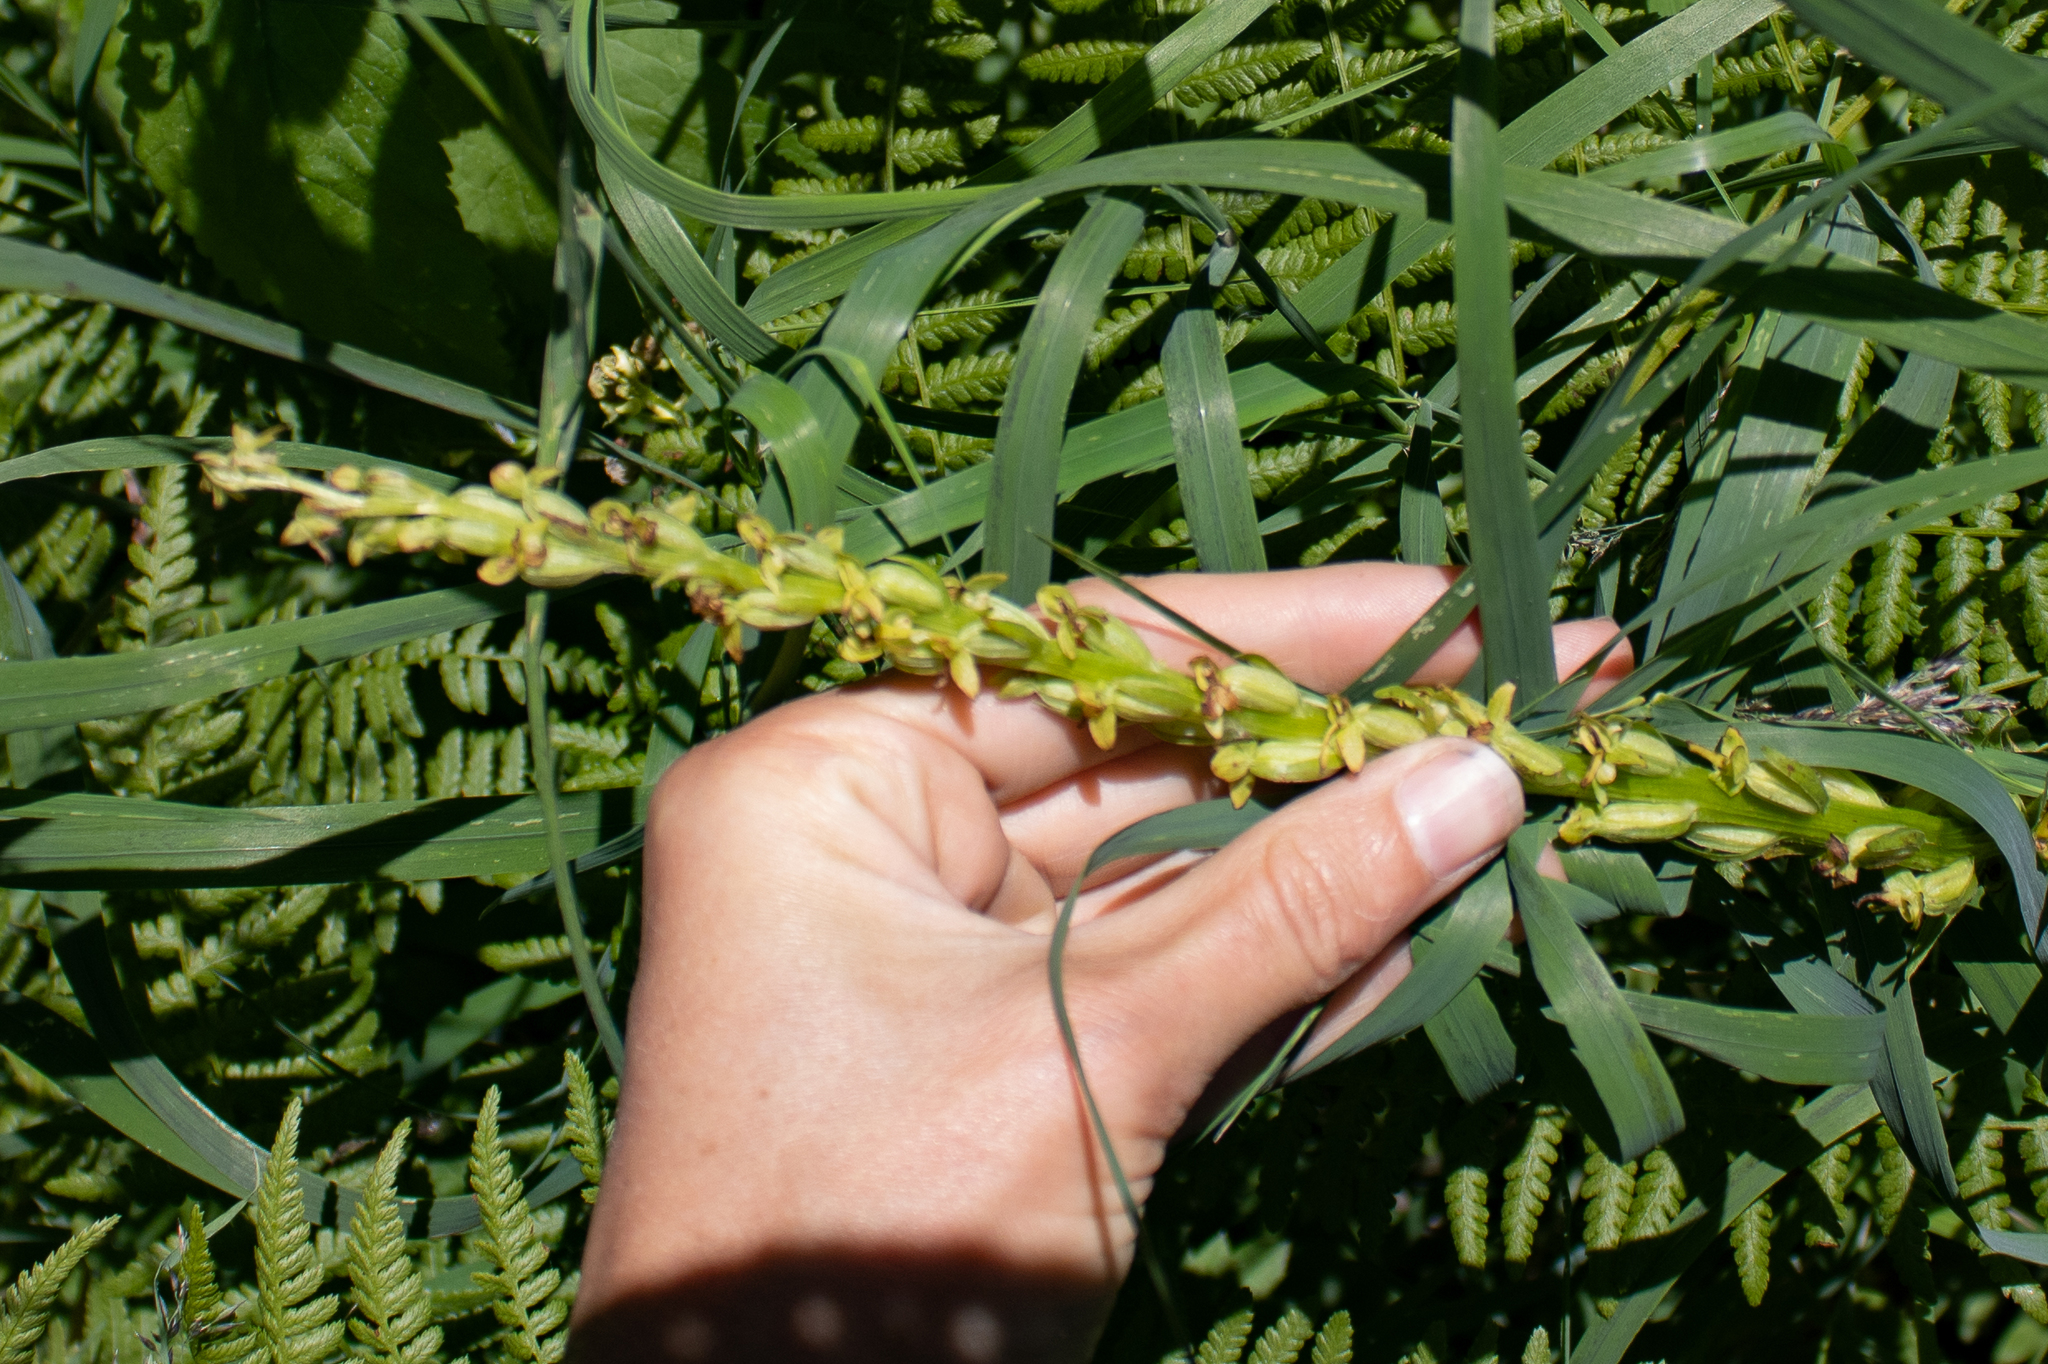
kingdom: Plantae
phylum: Tracheophyta
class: Liliopsida
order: Asparagales
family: Orchidaceae
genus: Platanthera
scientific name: Platanthera stricta
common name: Slender bog orchid
